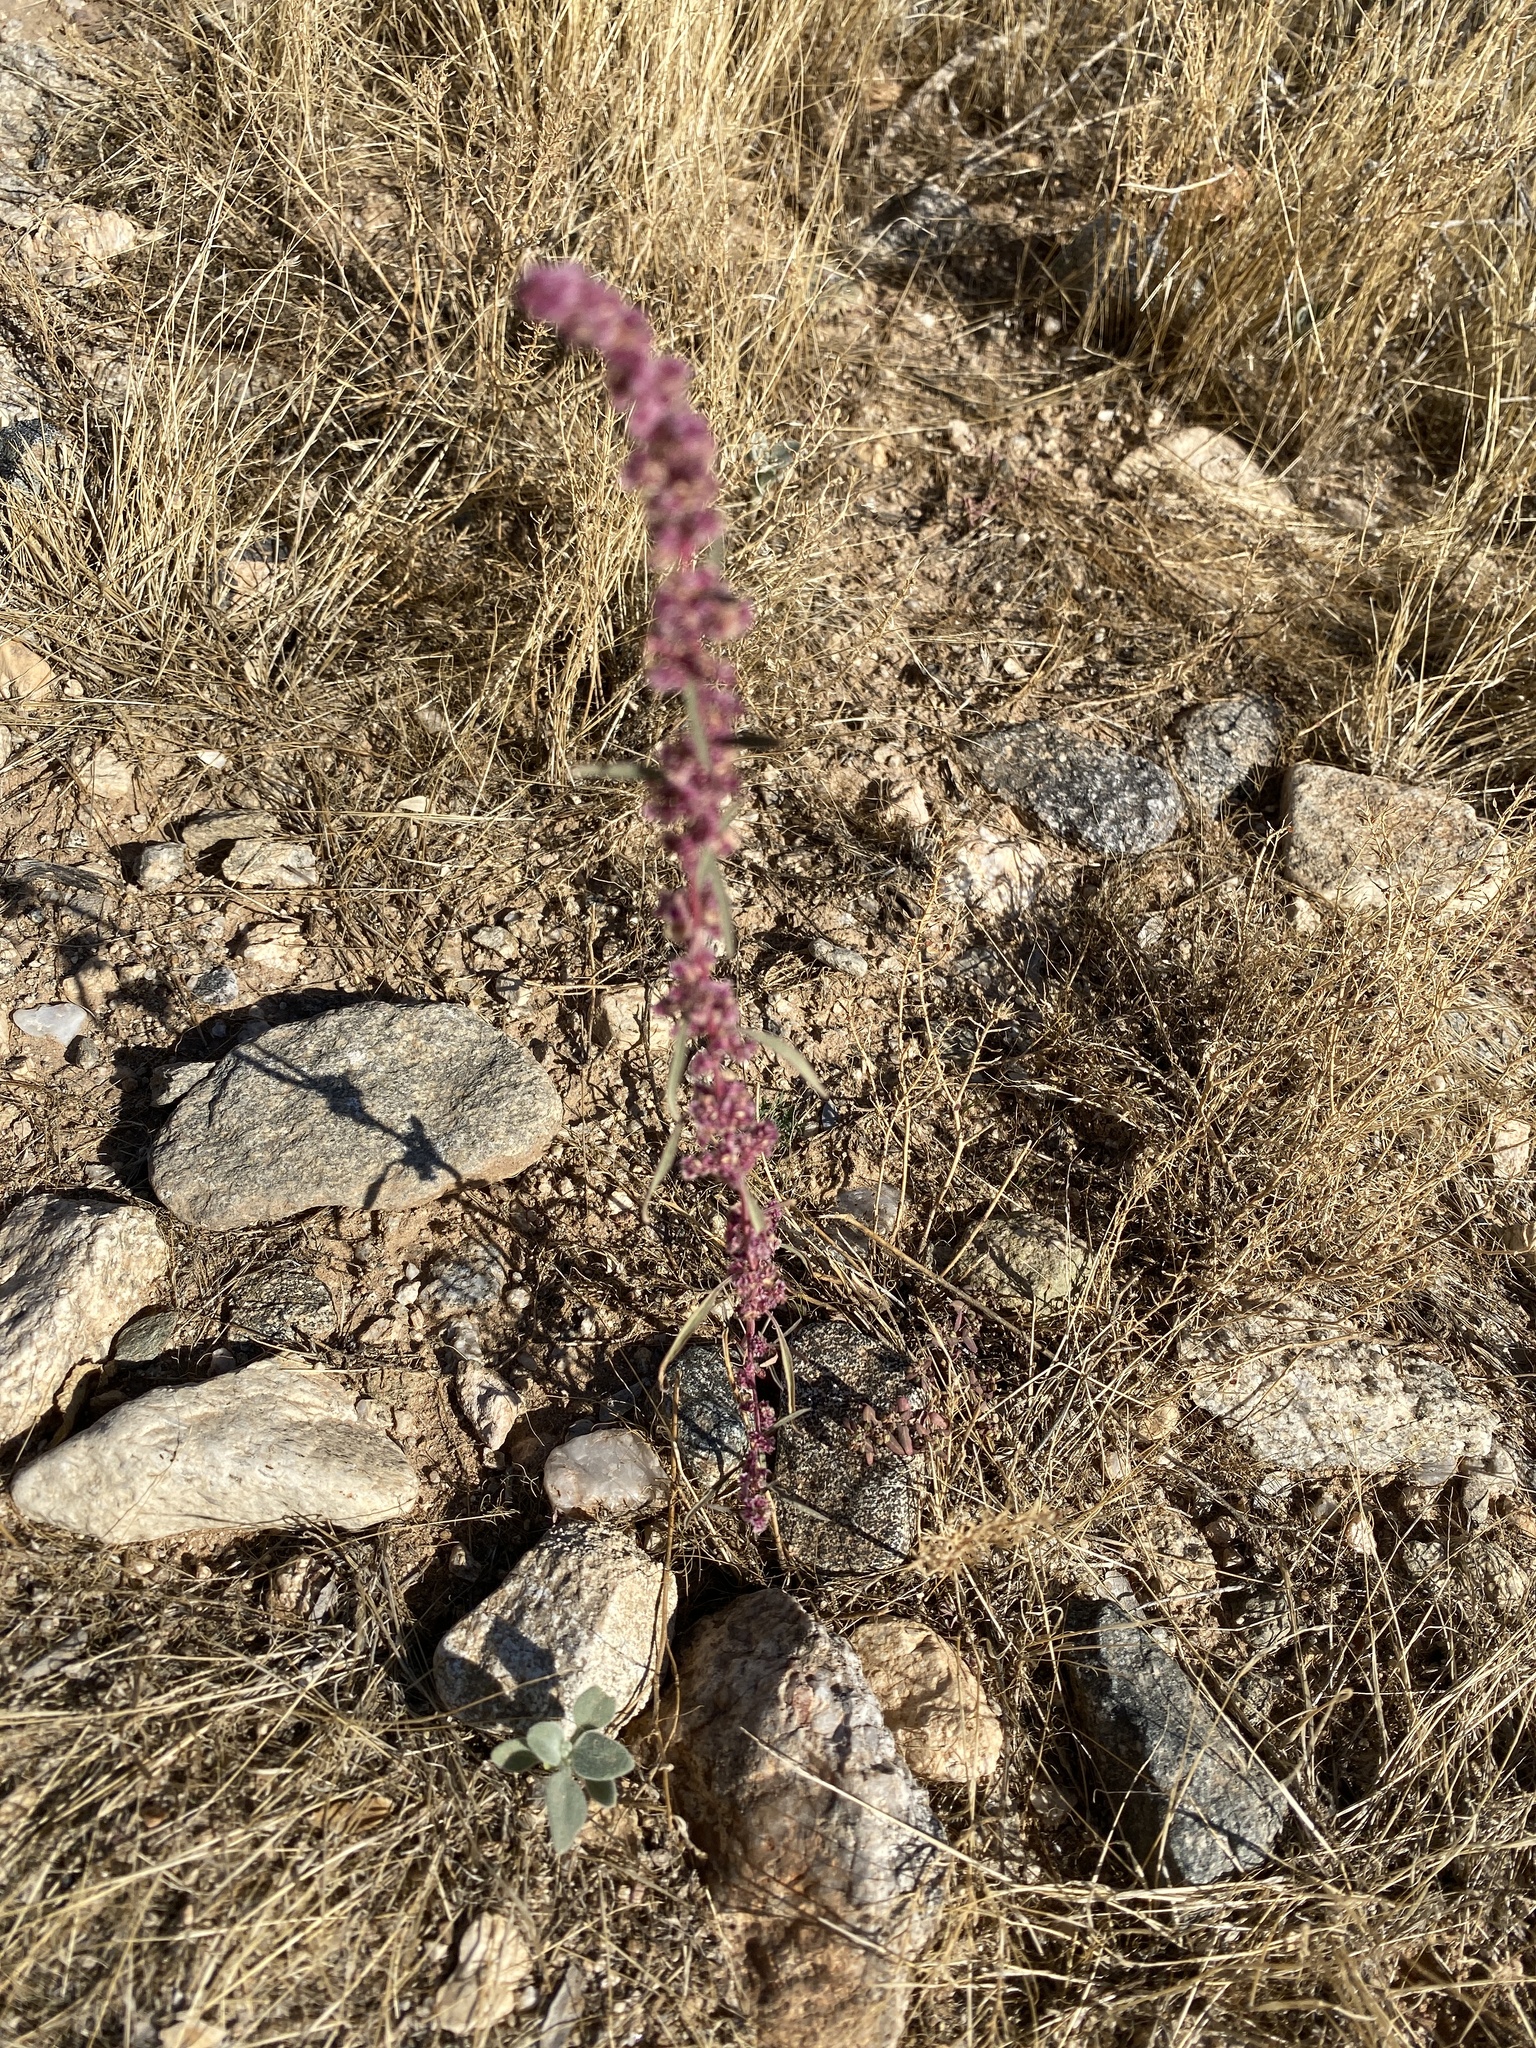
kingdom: Plantae
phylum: Tracheophyta
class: Magnoliopsida
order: Caryophyllales
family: Amaranthaceae
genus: Amaranthus
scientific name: Amaranthus fimbriatus
